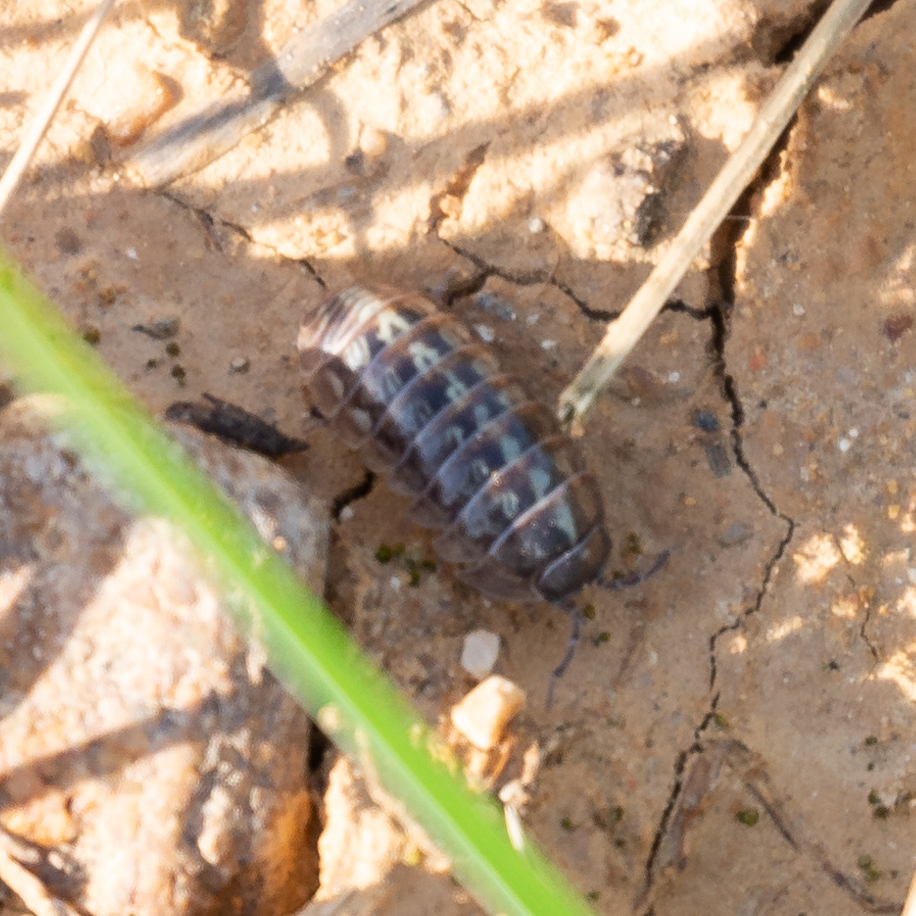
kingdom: Animalia
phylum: Arthropoda
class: Malacostraca
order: Isopoda
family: Armadillidiidae
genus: Armadillidium
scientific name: Armadillidium vulgare
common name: Common pill woodlouse
